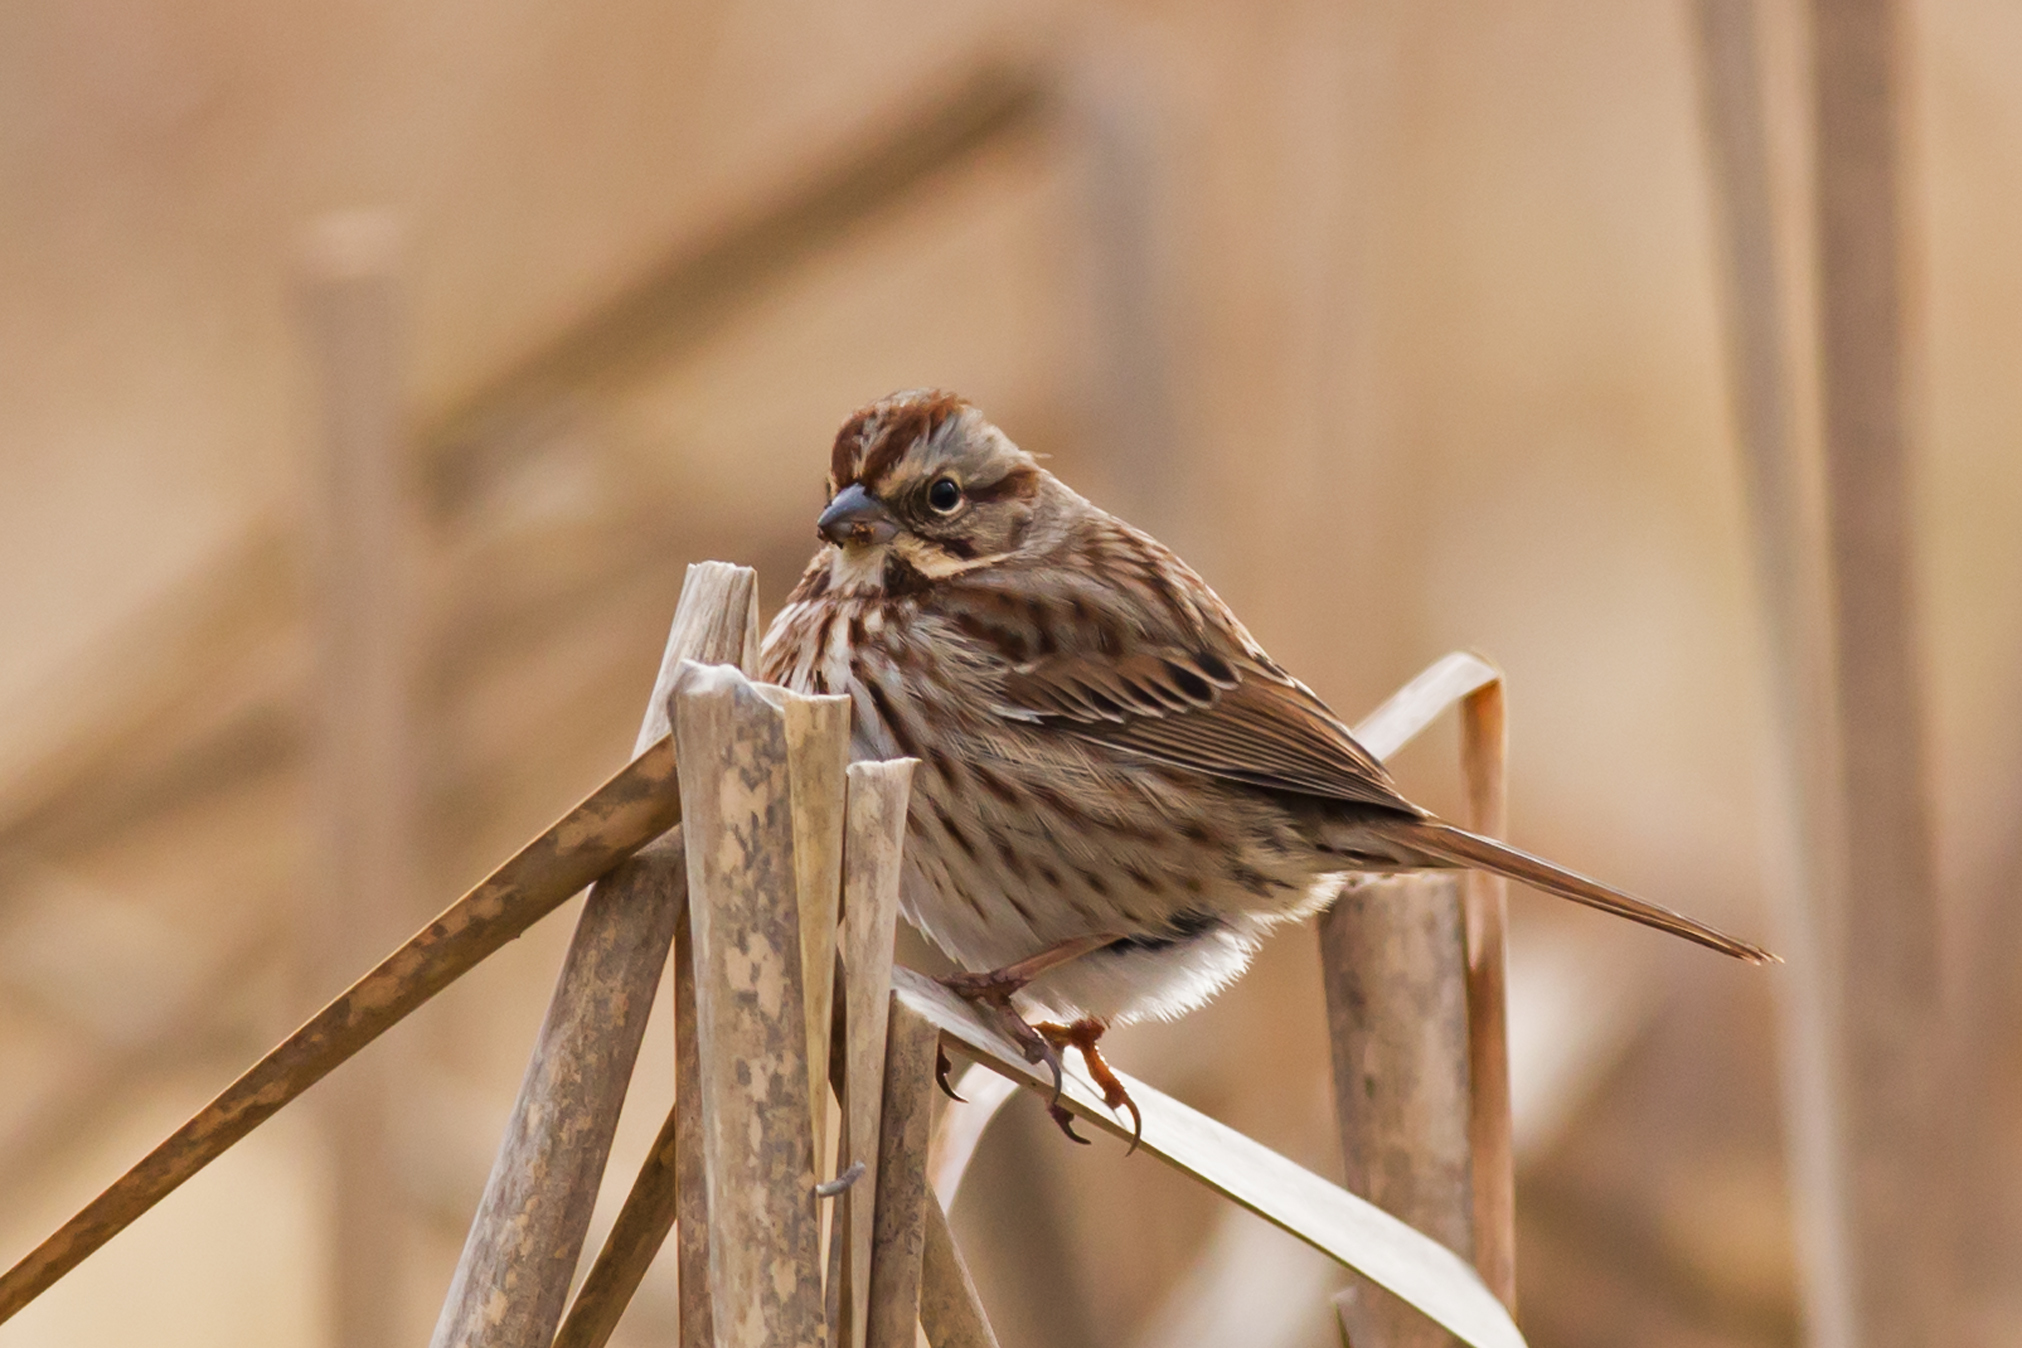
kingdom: Animalia
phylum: Chordata
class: Aves
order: Passeriformes
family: Passerellidae
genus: Melospiza
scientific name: Melospiza melodia
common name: Song sparrow
